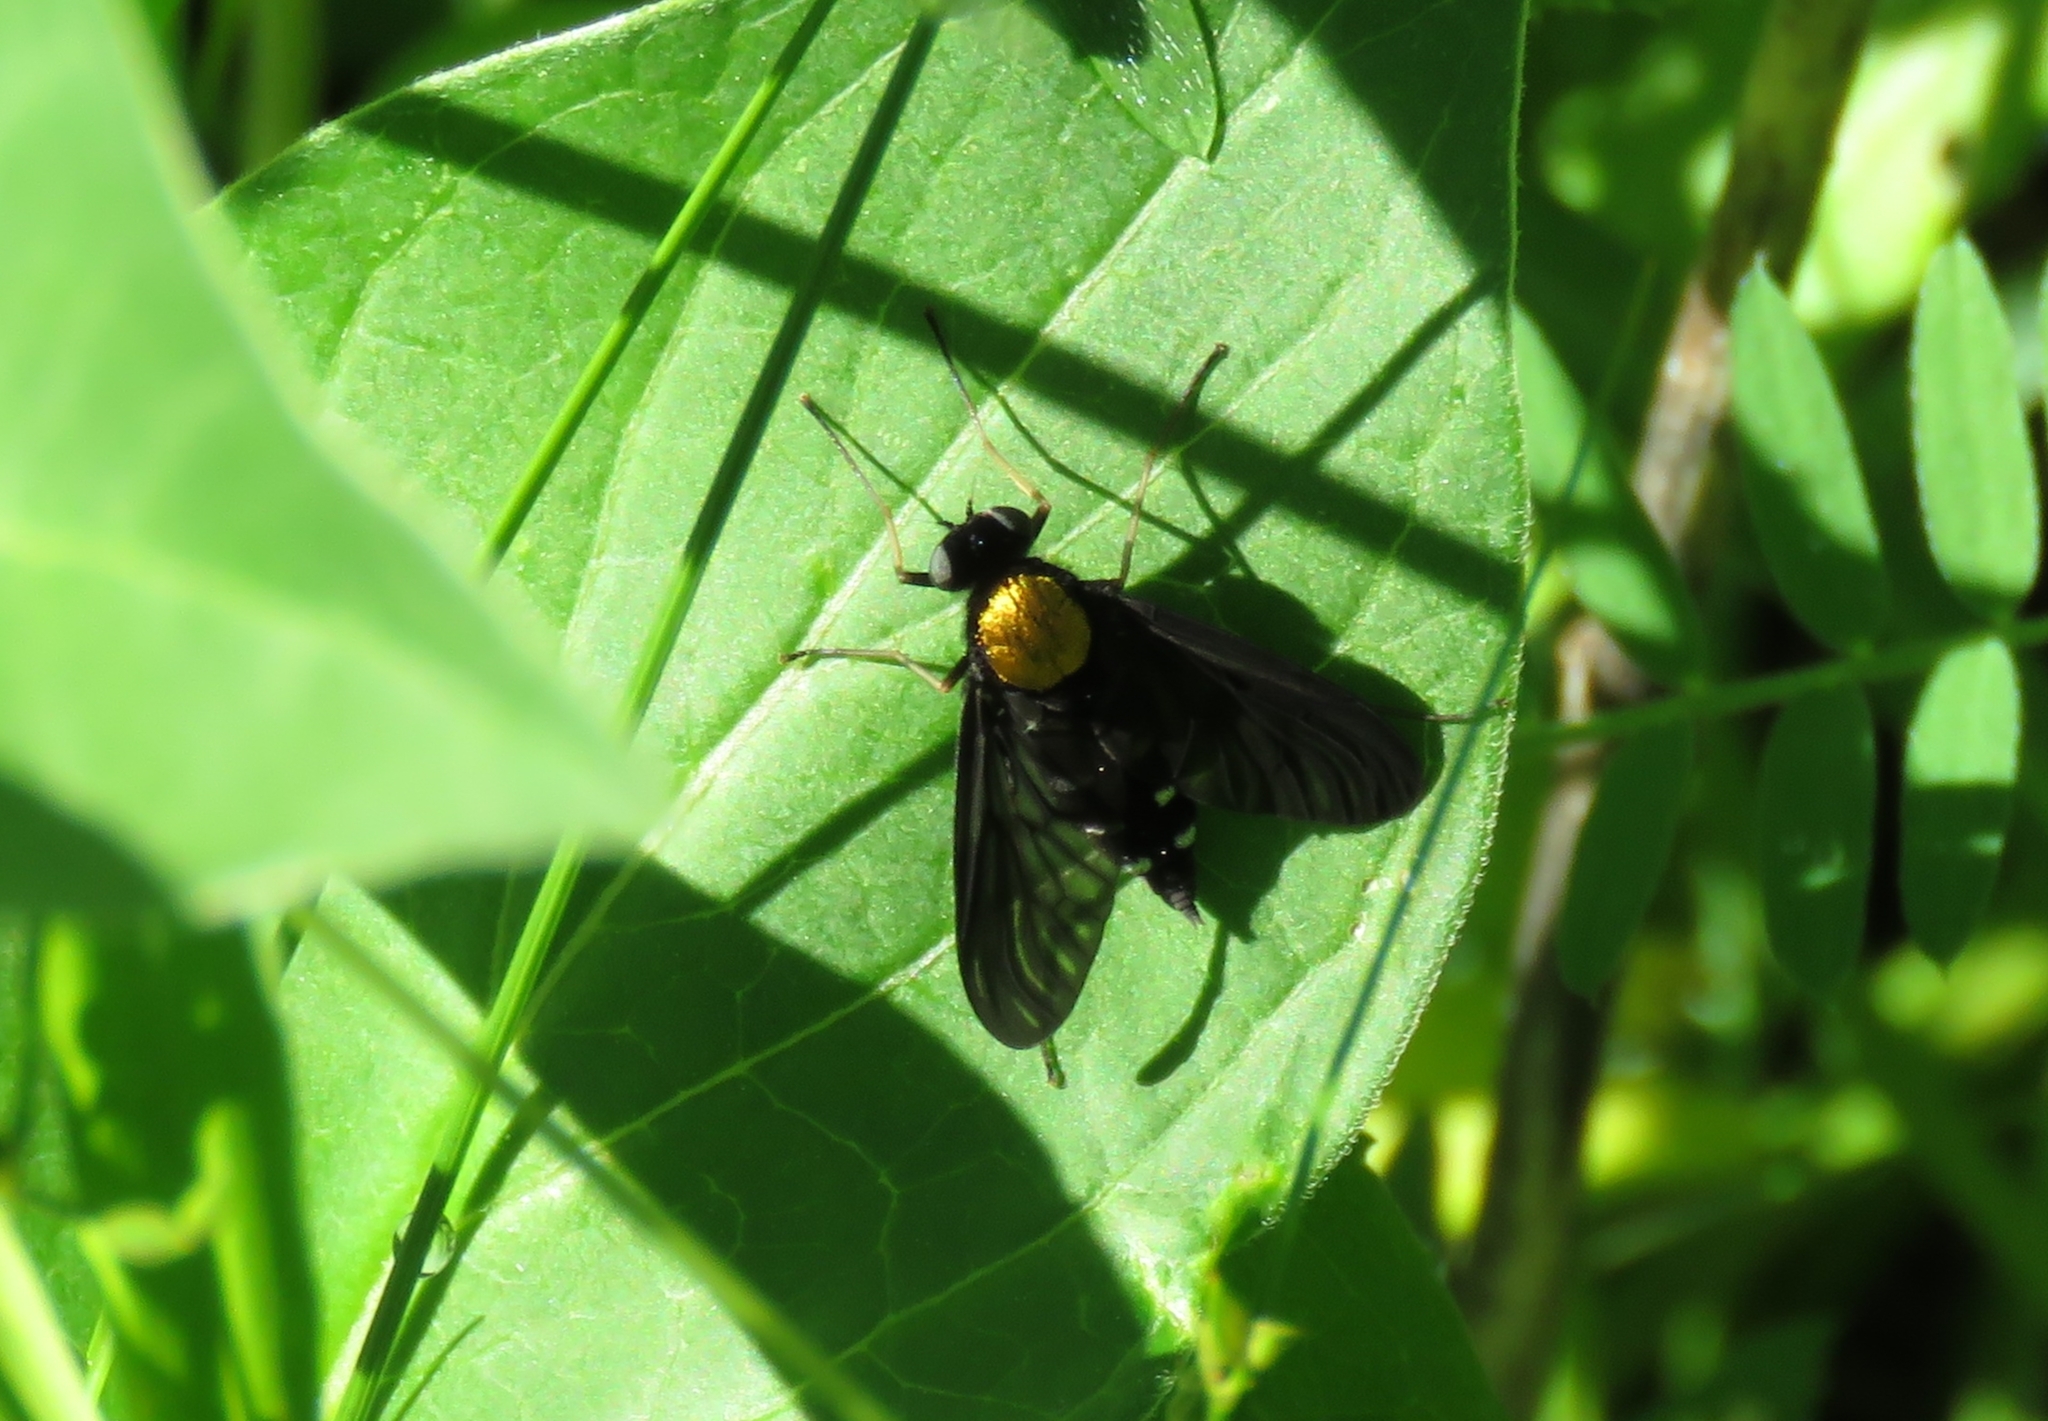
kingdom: Animalia
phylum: Arthropoda
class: Insecta
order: Diptera
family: Rhagionidae
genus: Chrysopilus
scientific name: Chrysopilus thoracicus
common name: Golden-backed snipe fly
